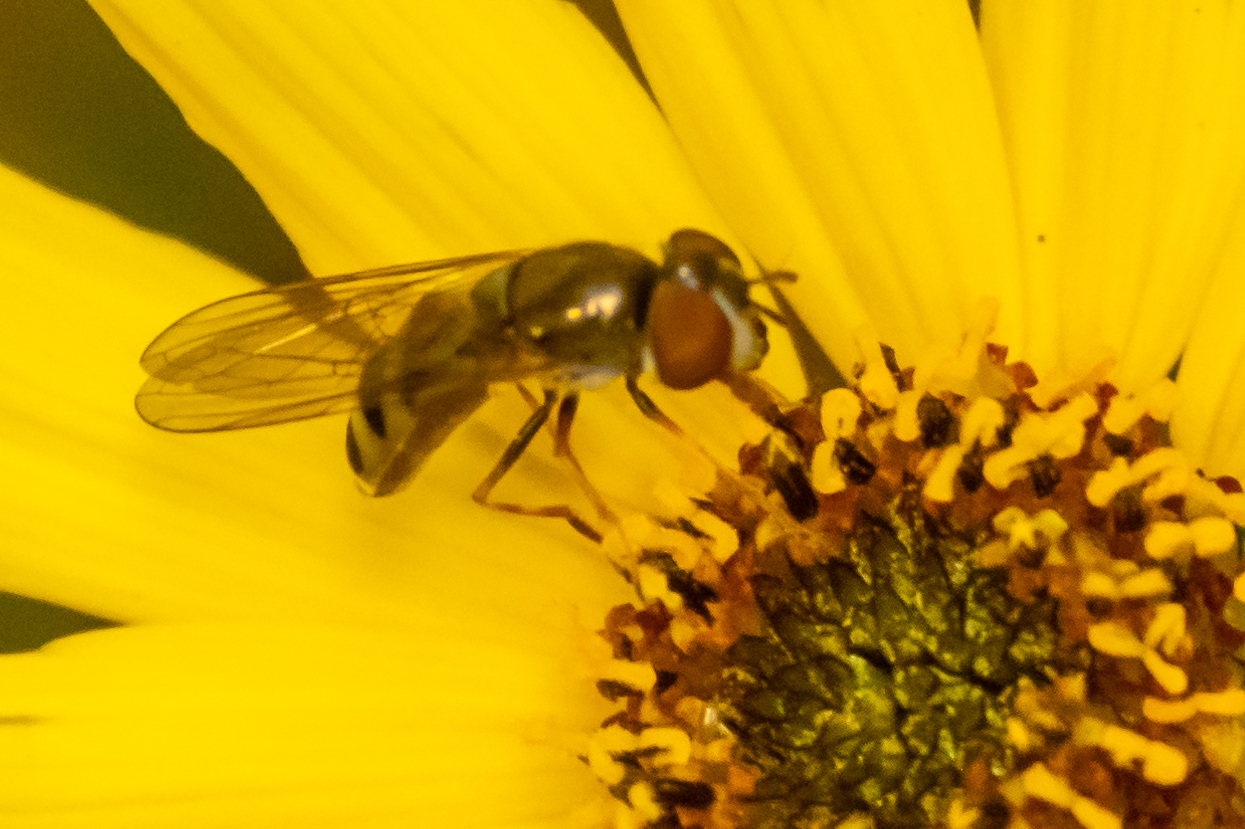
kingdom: Animalia
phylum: Arthropoda
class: Insecta
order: Diptera
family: Syrphidae
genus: Platycheirus
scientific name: Platycheirus obscurus
